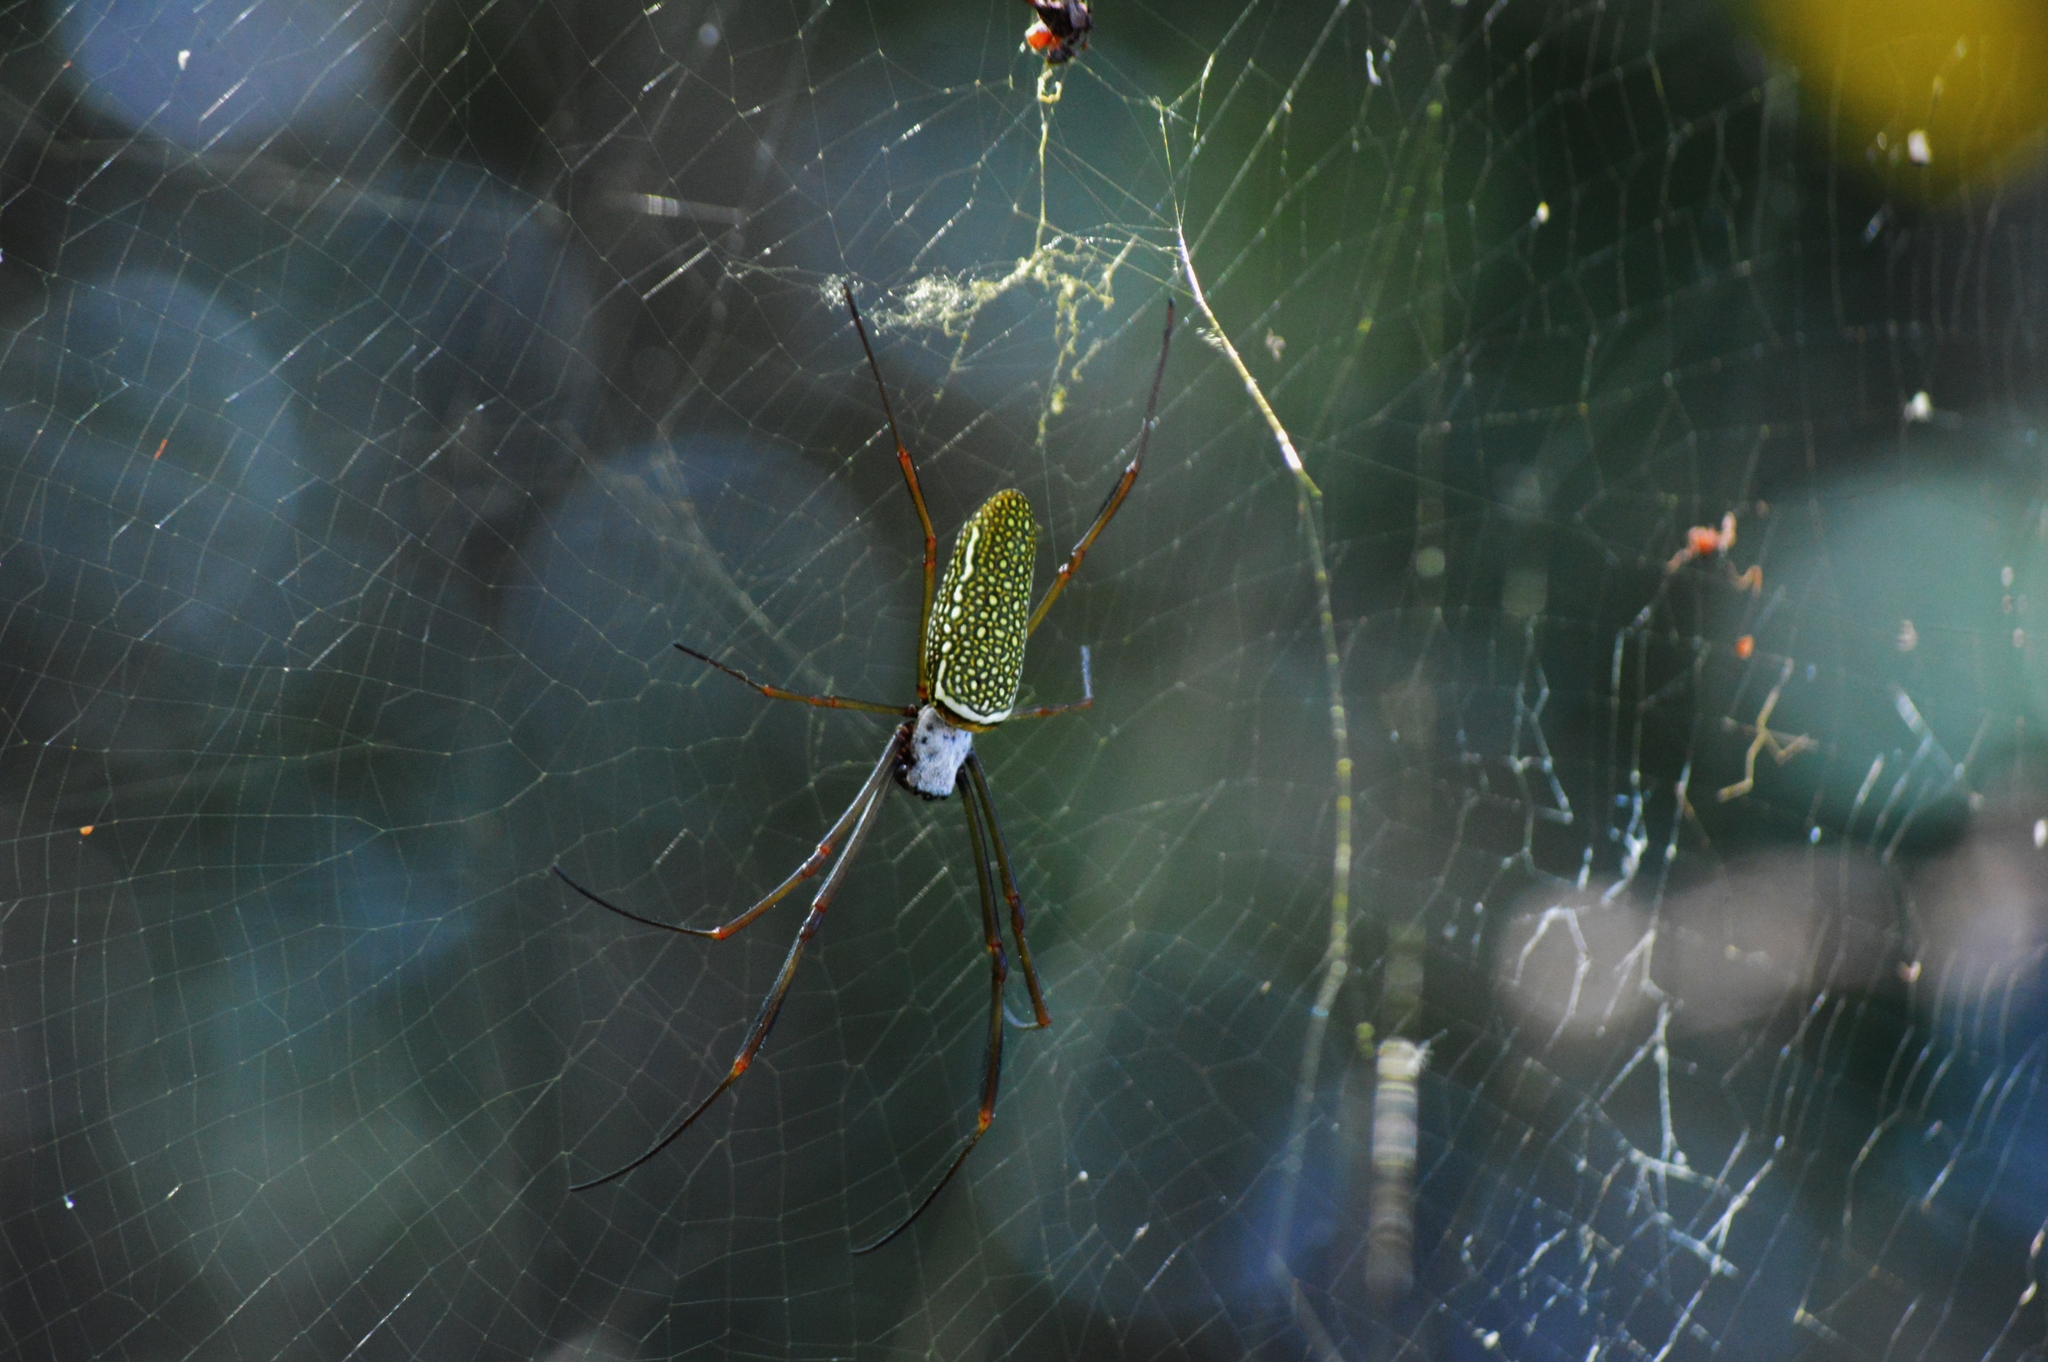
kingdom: Animalia
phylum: Arthropoda
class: Arachnida
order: Araneae
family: Araneidae
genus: Trichonephila
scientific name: Trichonephila clavipes
